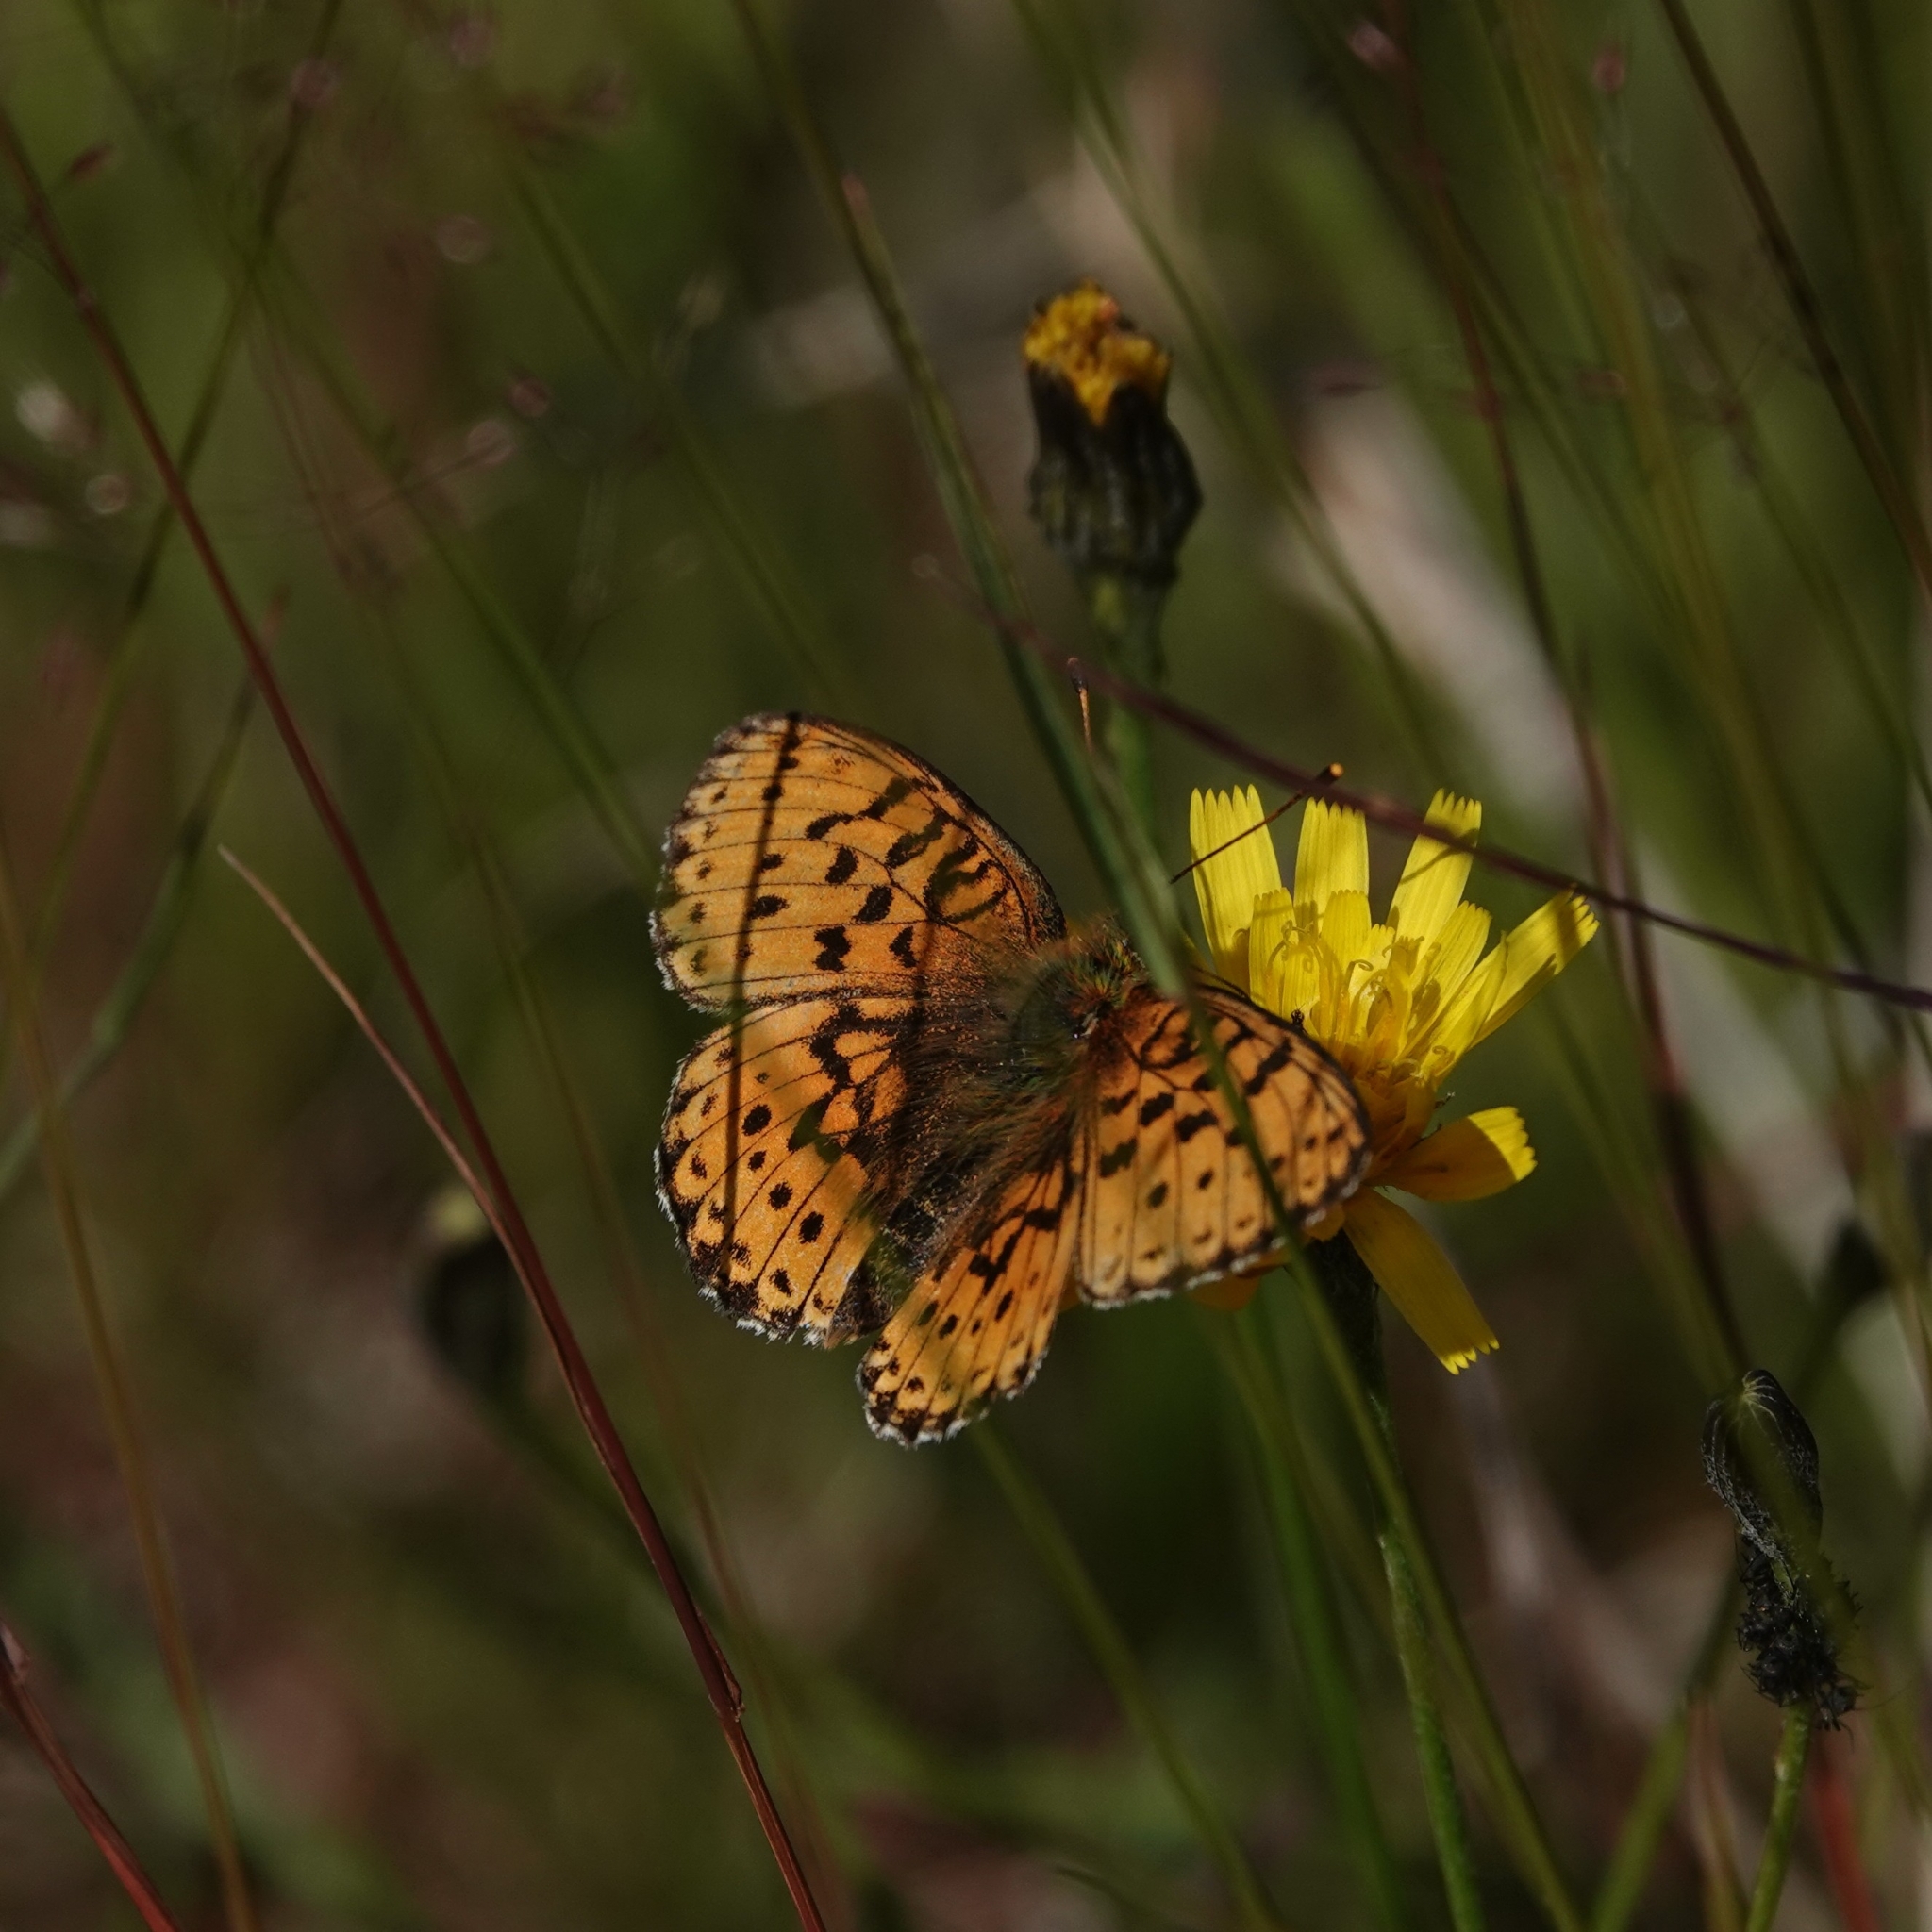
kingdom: Animalia
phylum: Arthropoda
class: Insecta
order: Lepidoptera
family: Nymphalidae
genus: Brenthis
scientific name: Brenthis ino
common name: Lesser marbled fritillary
